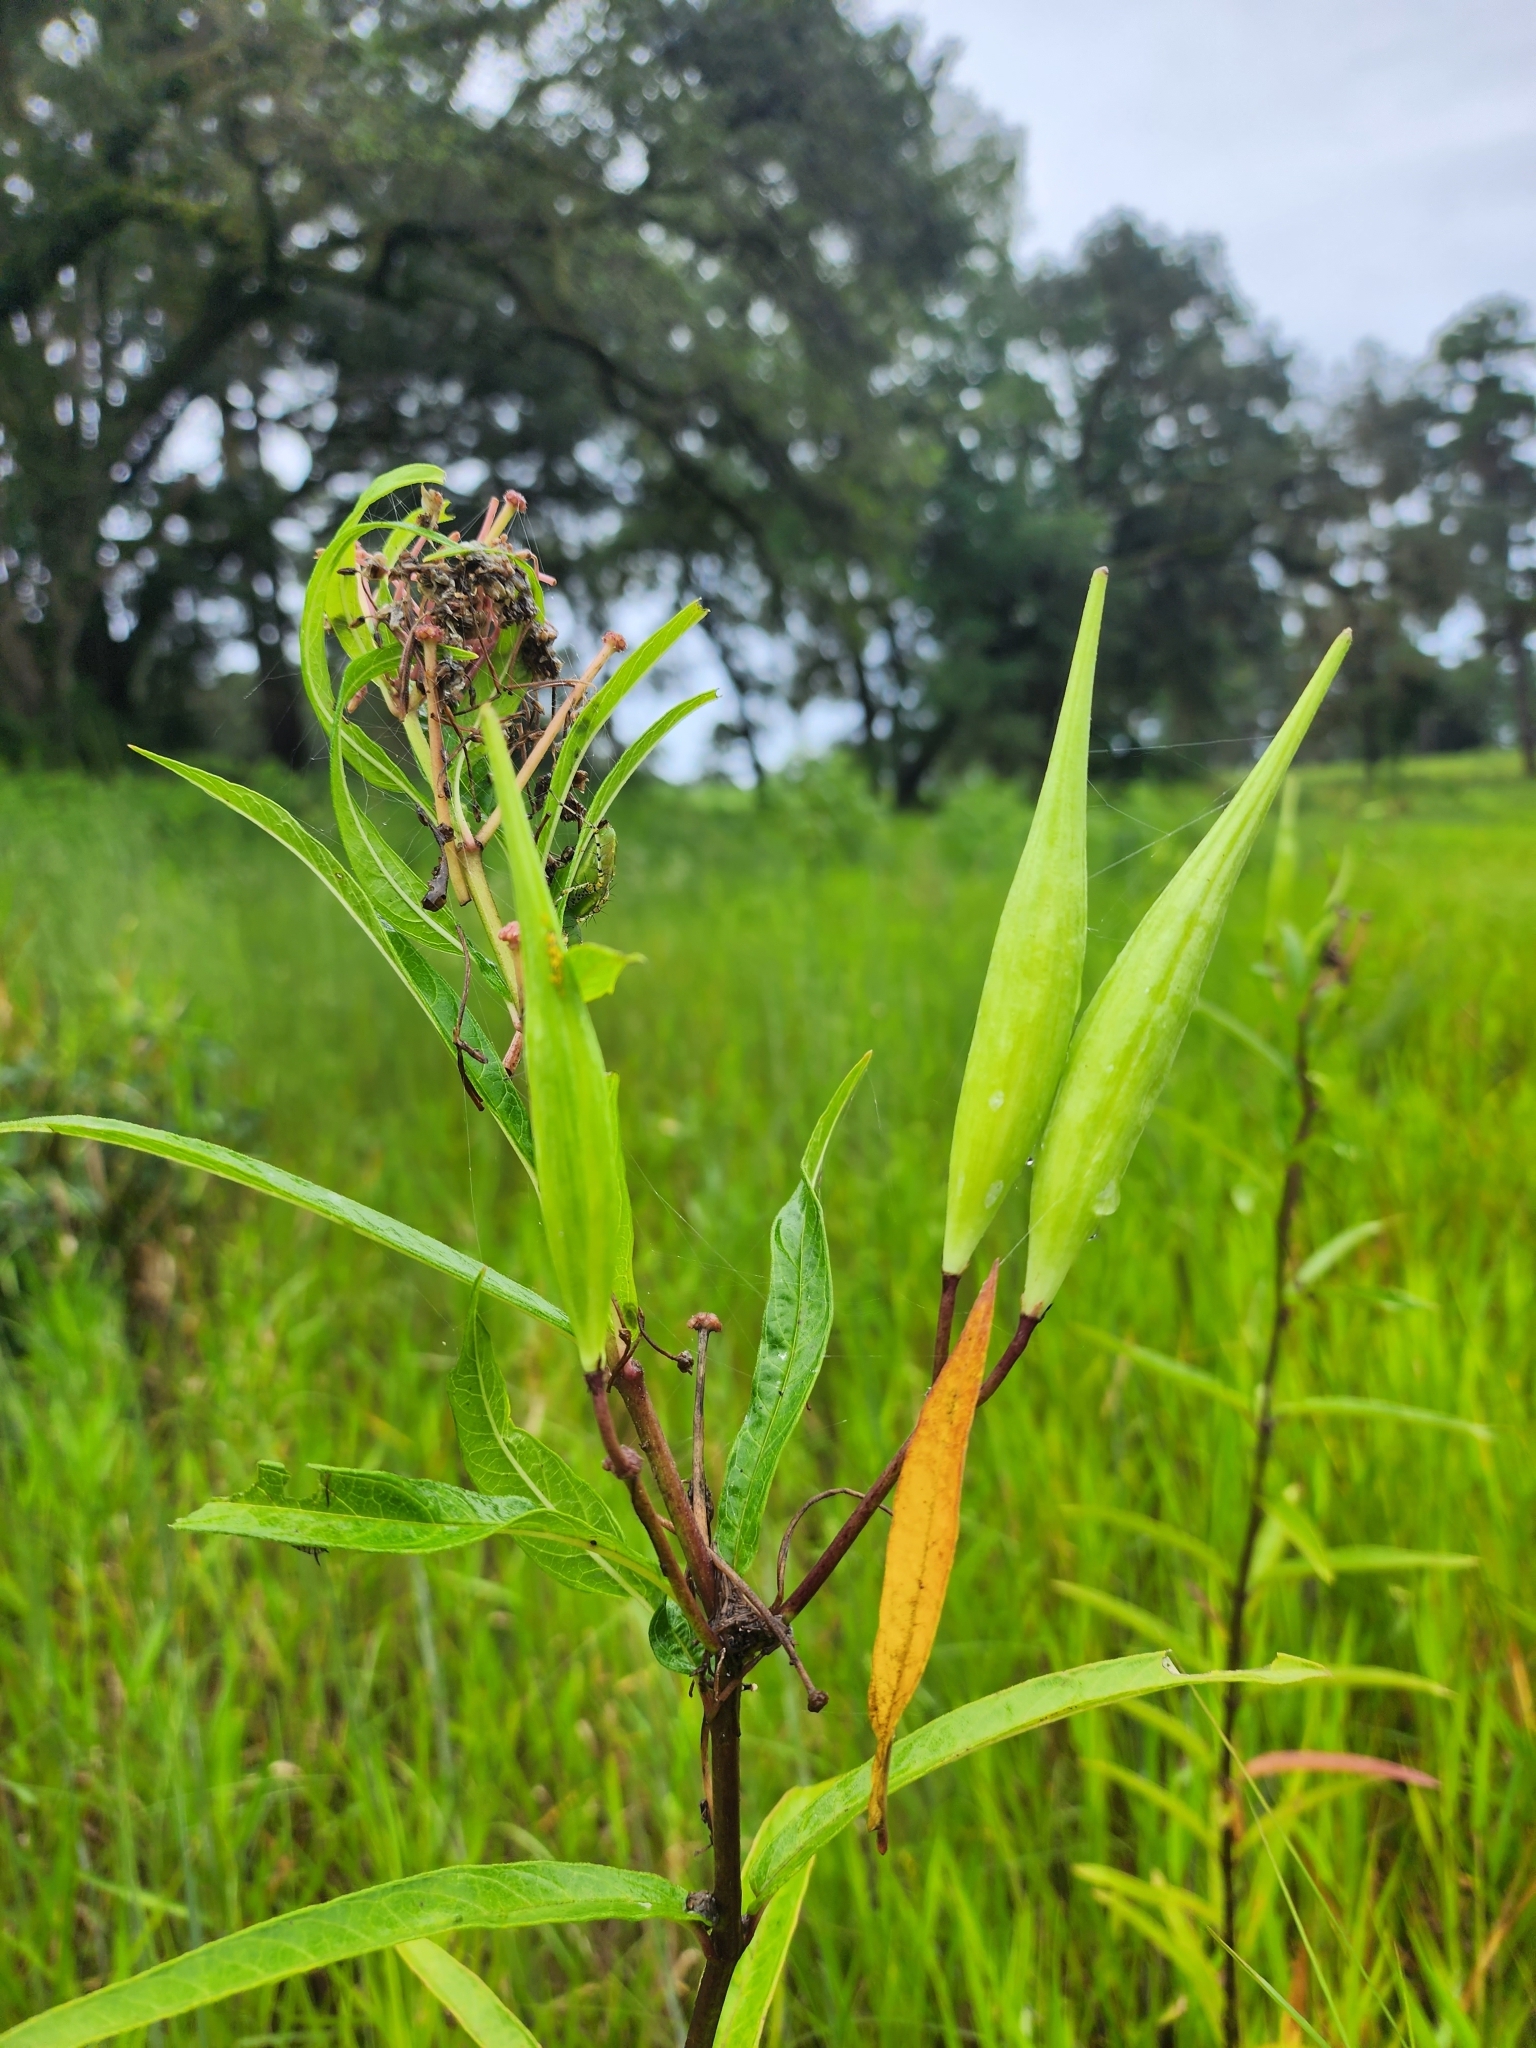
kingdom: Plantae
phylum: Tracheophyta
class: Magnoliopsida
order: Gentianales
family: Apocynaceae
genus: Asclepias
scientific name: Asclepias incarnata
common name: Swamp milkweed
